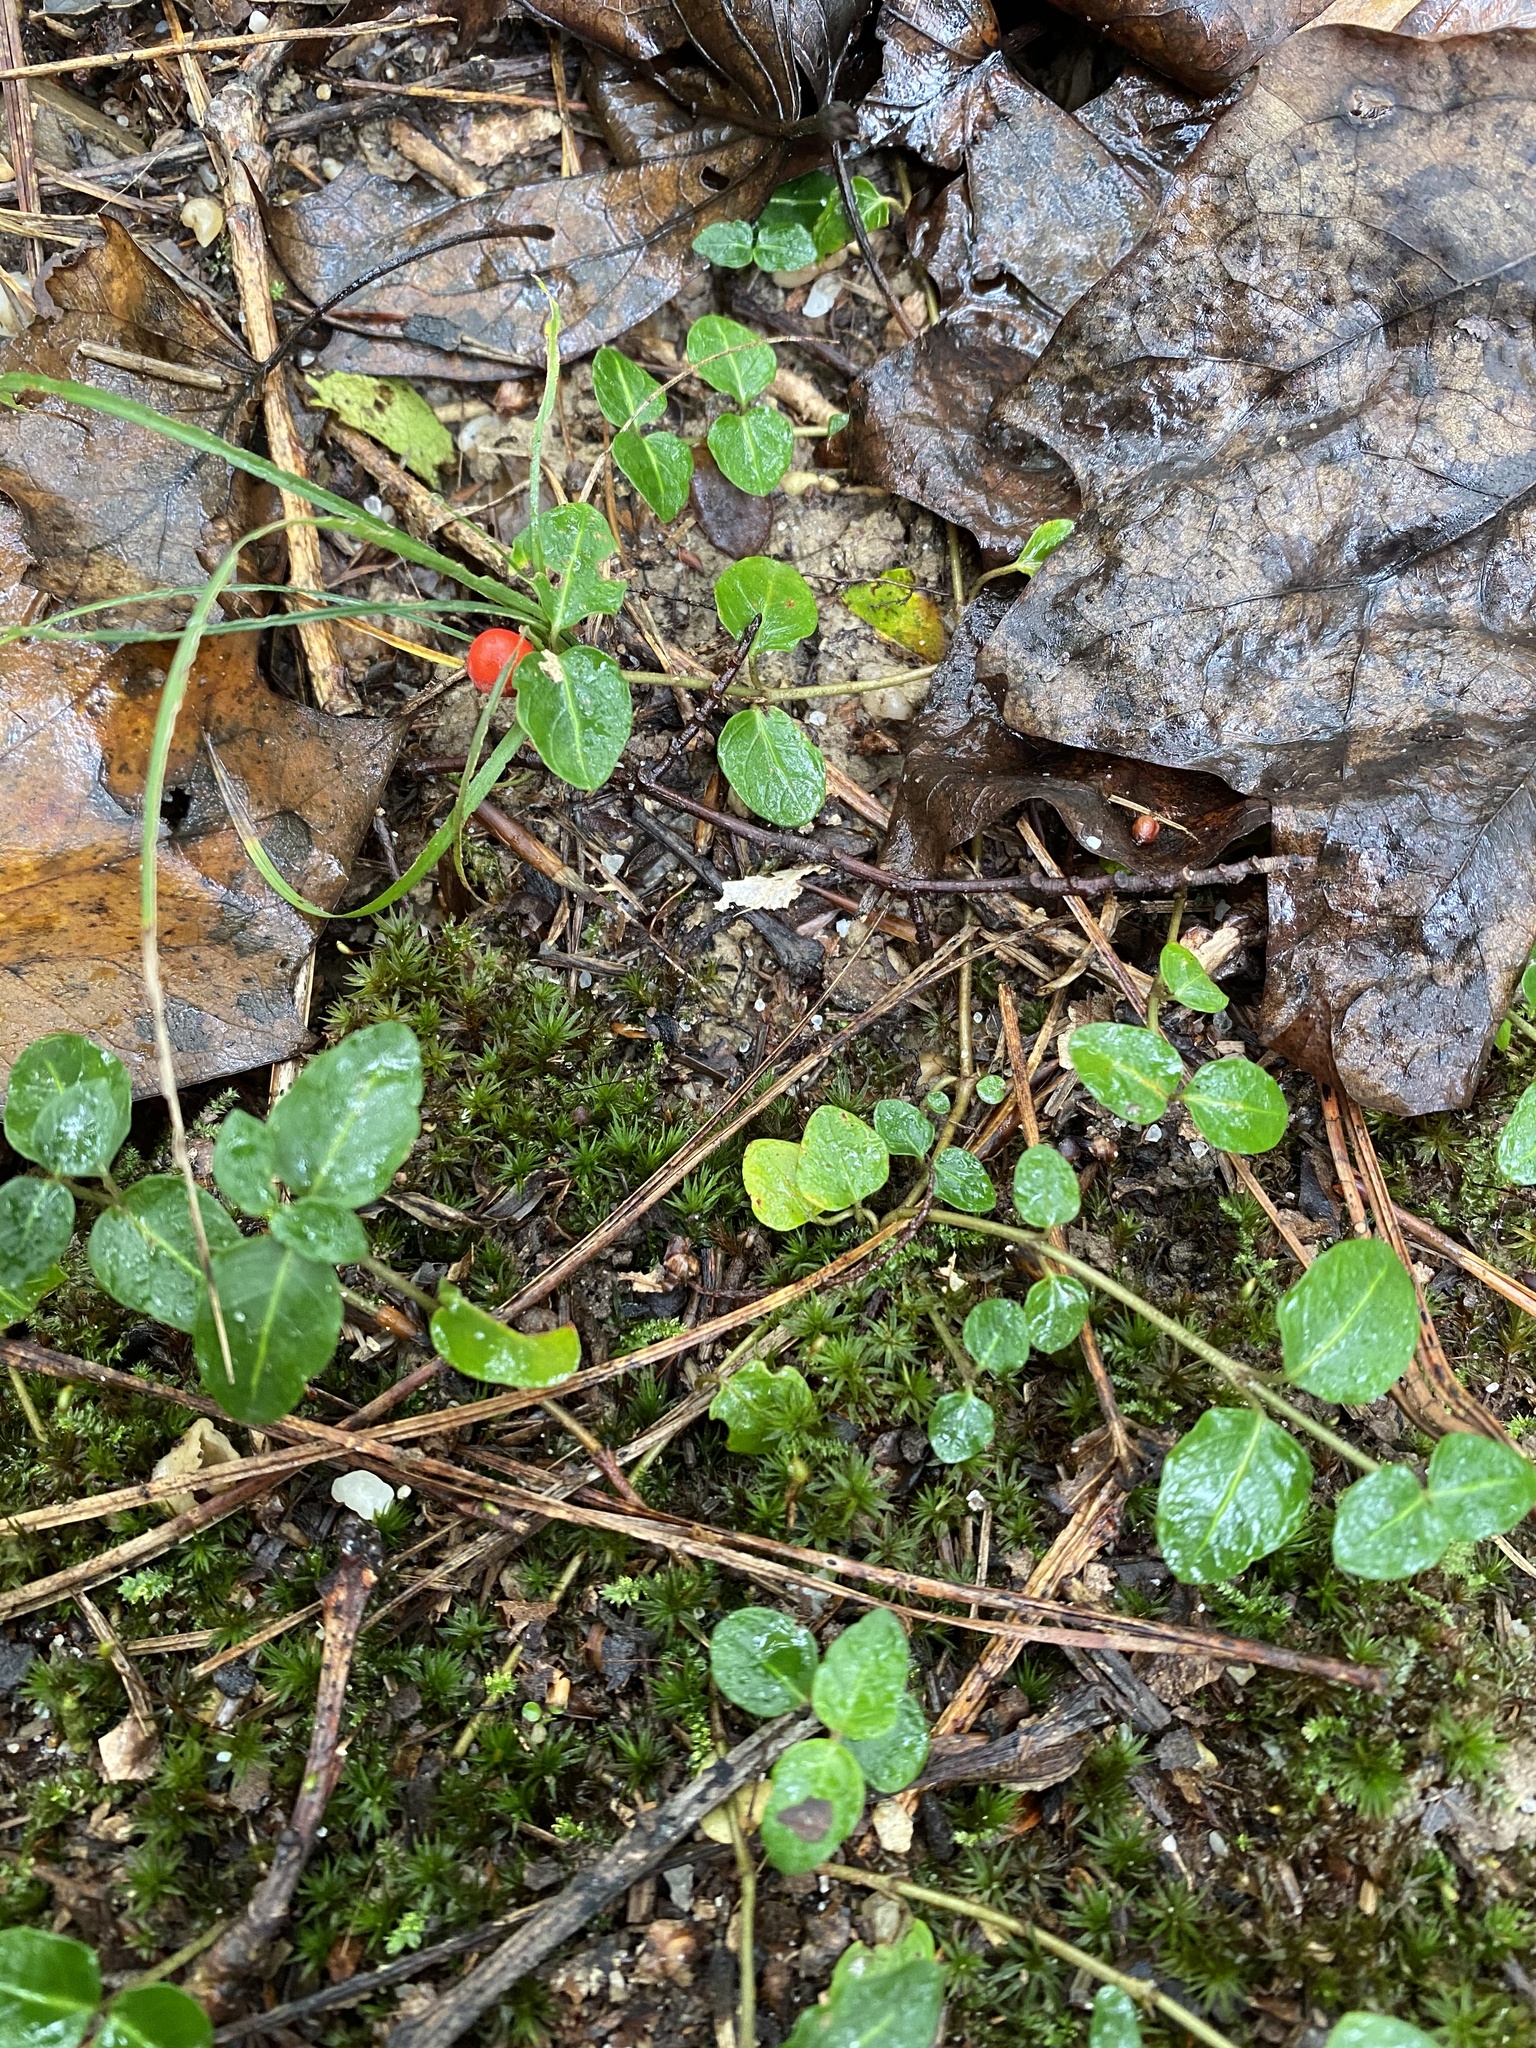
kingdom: Plantae
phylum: Tracheophyta
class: Magnoliopsida
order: Gentianales
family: Rubiaceae
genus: Mitchella
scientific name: Mitchella repens
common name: Partridge-berry
